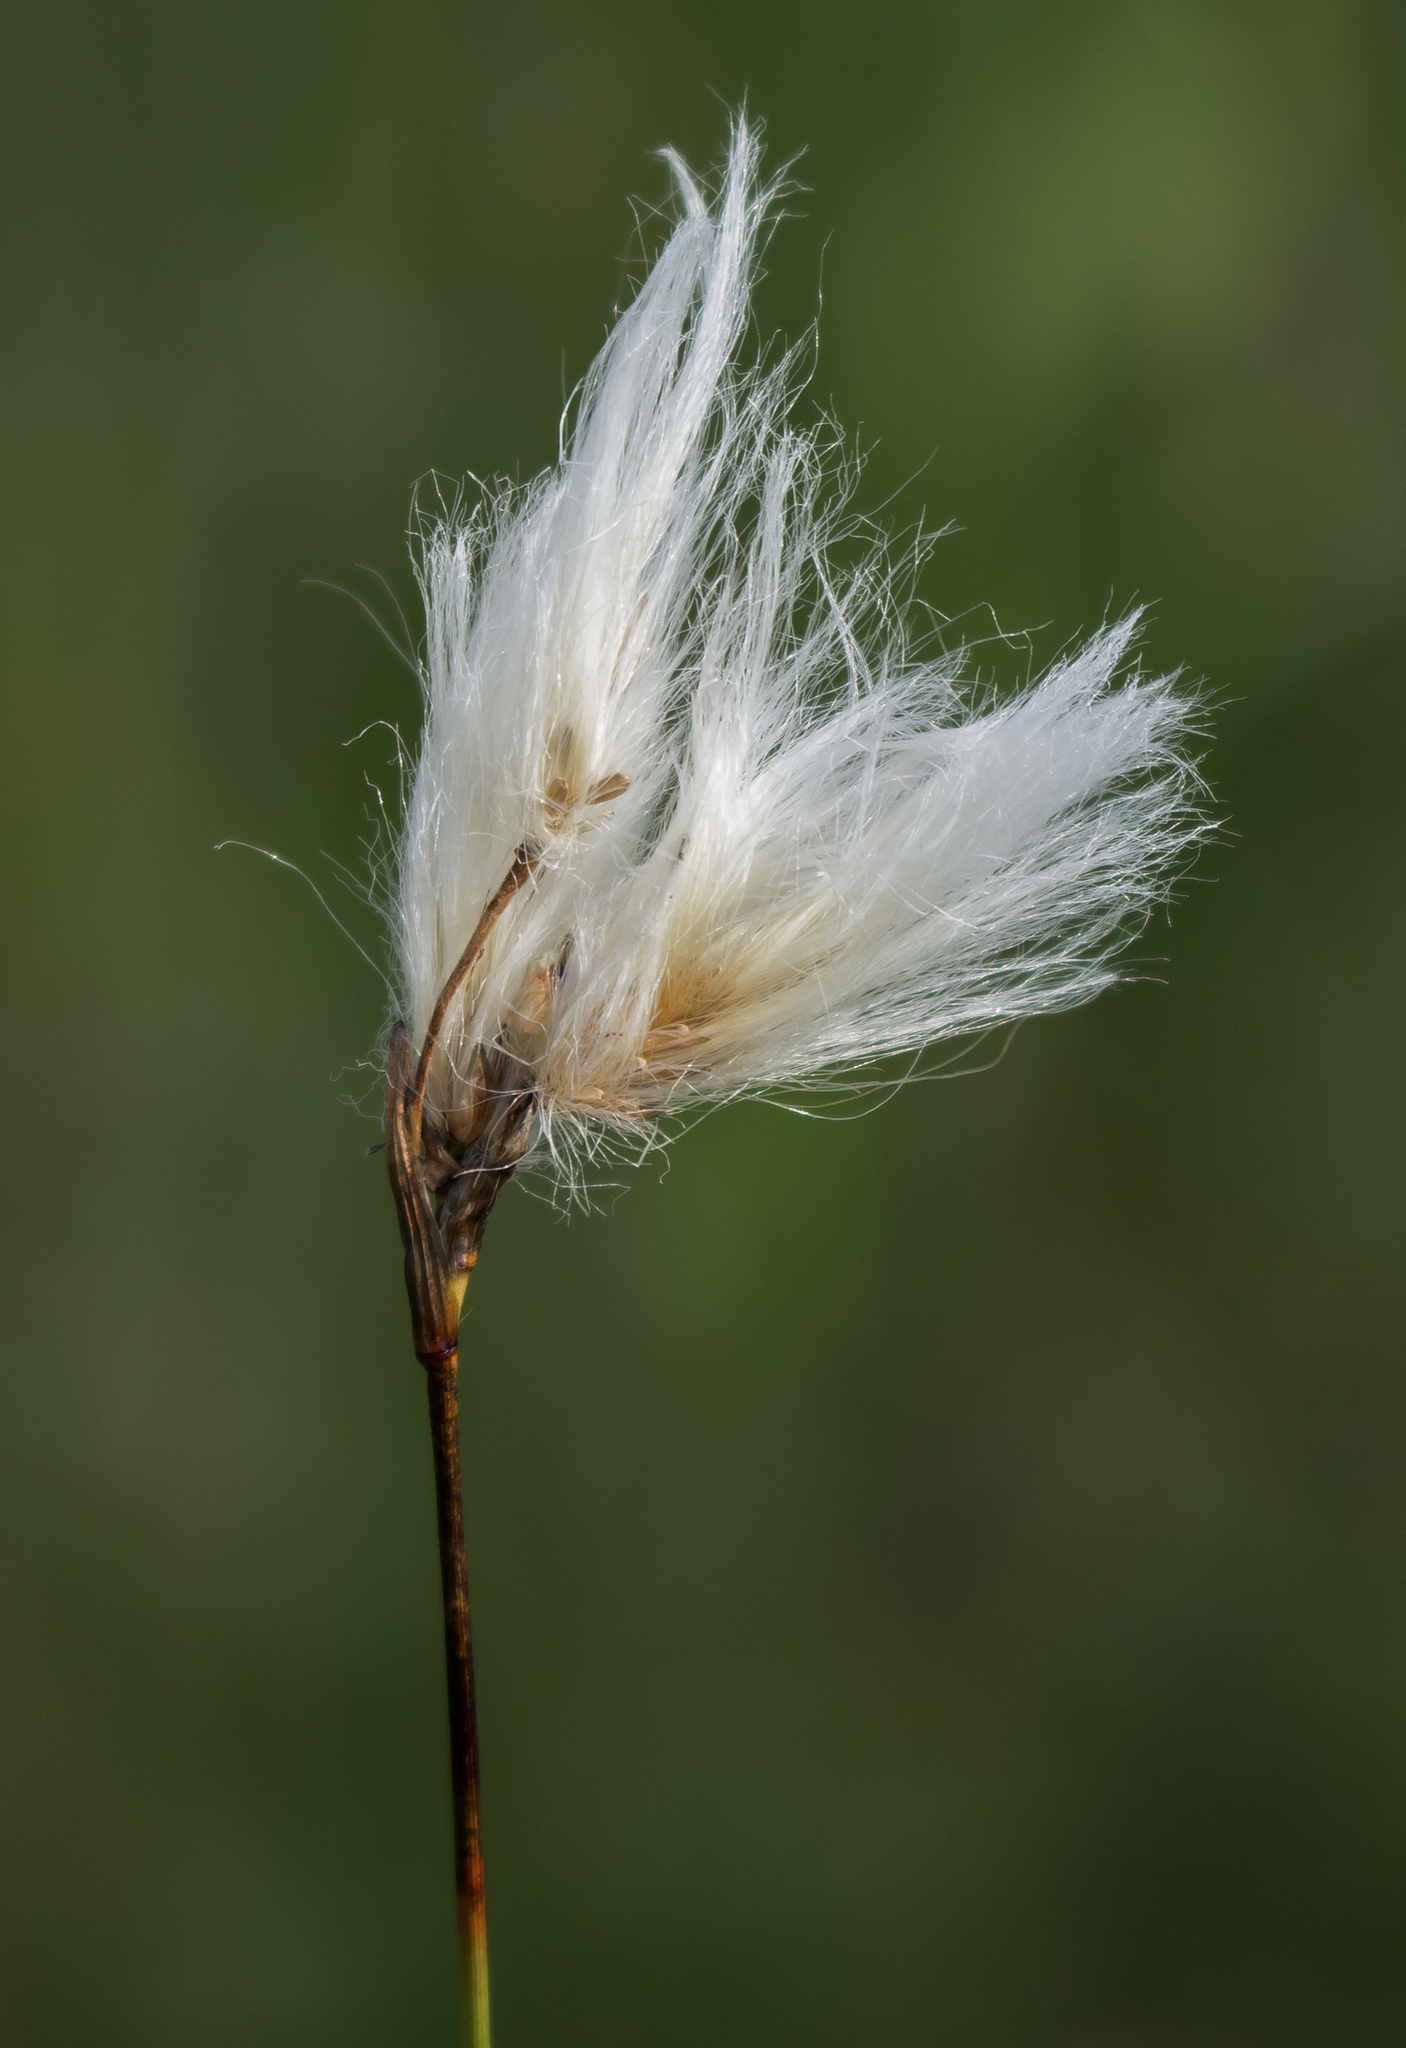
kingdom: Plantae
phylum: Tracheophyta
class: Liliopsida
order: Poales
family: Cyperaceae
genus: Eriophorum
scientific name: Eriophorum angustifolium
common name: Common cottongrass
